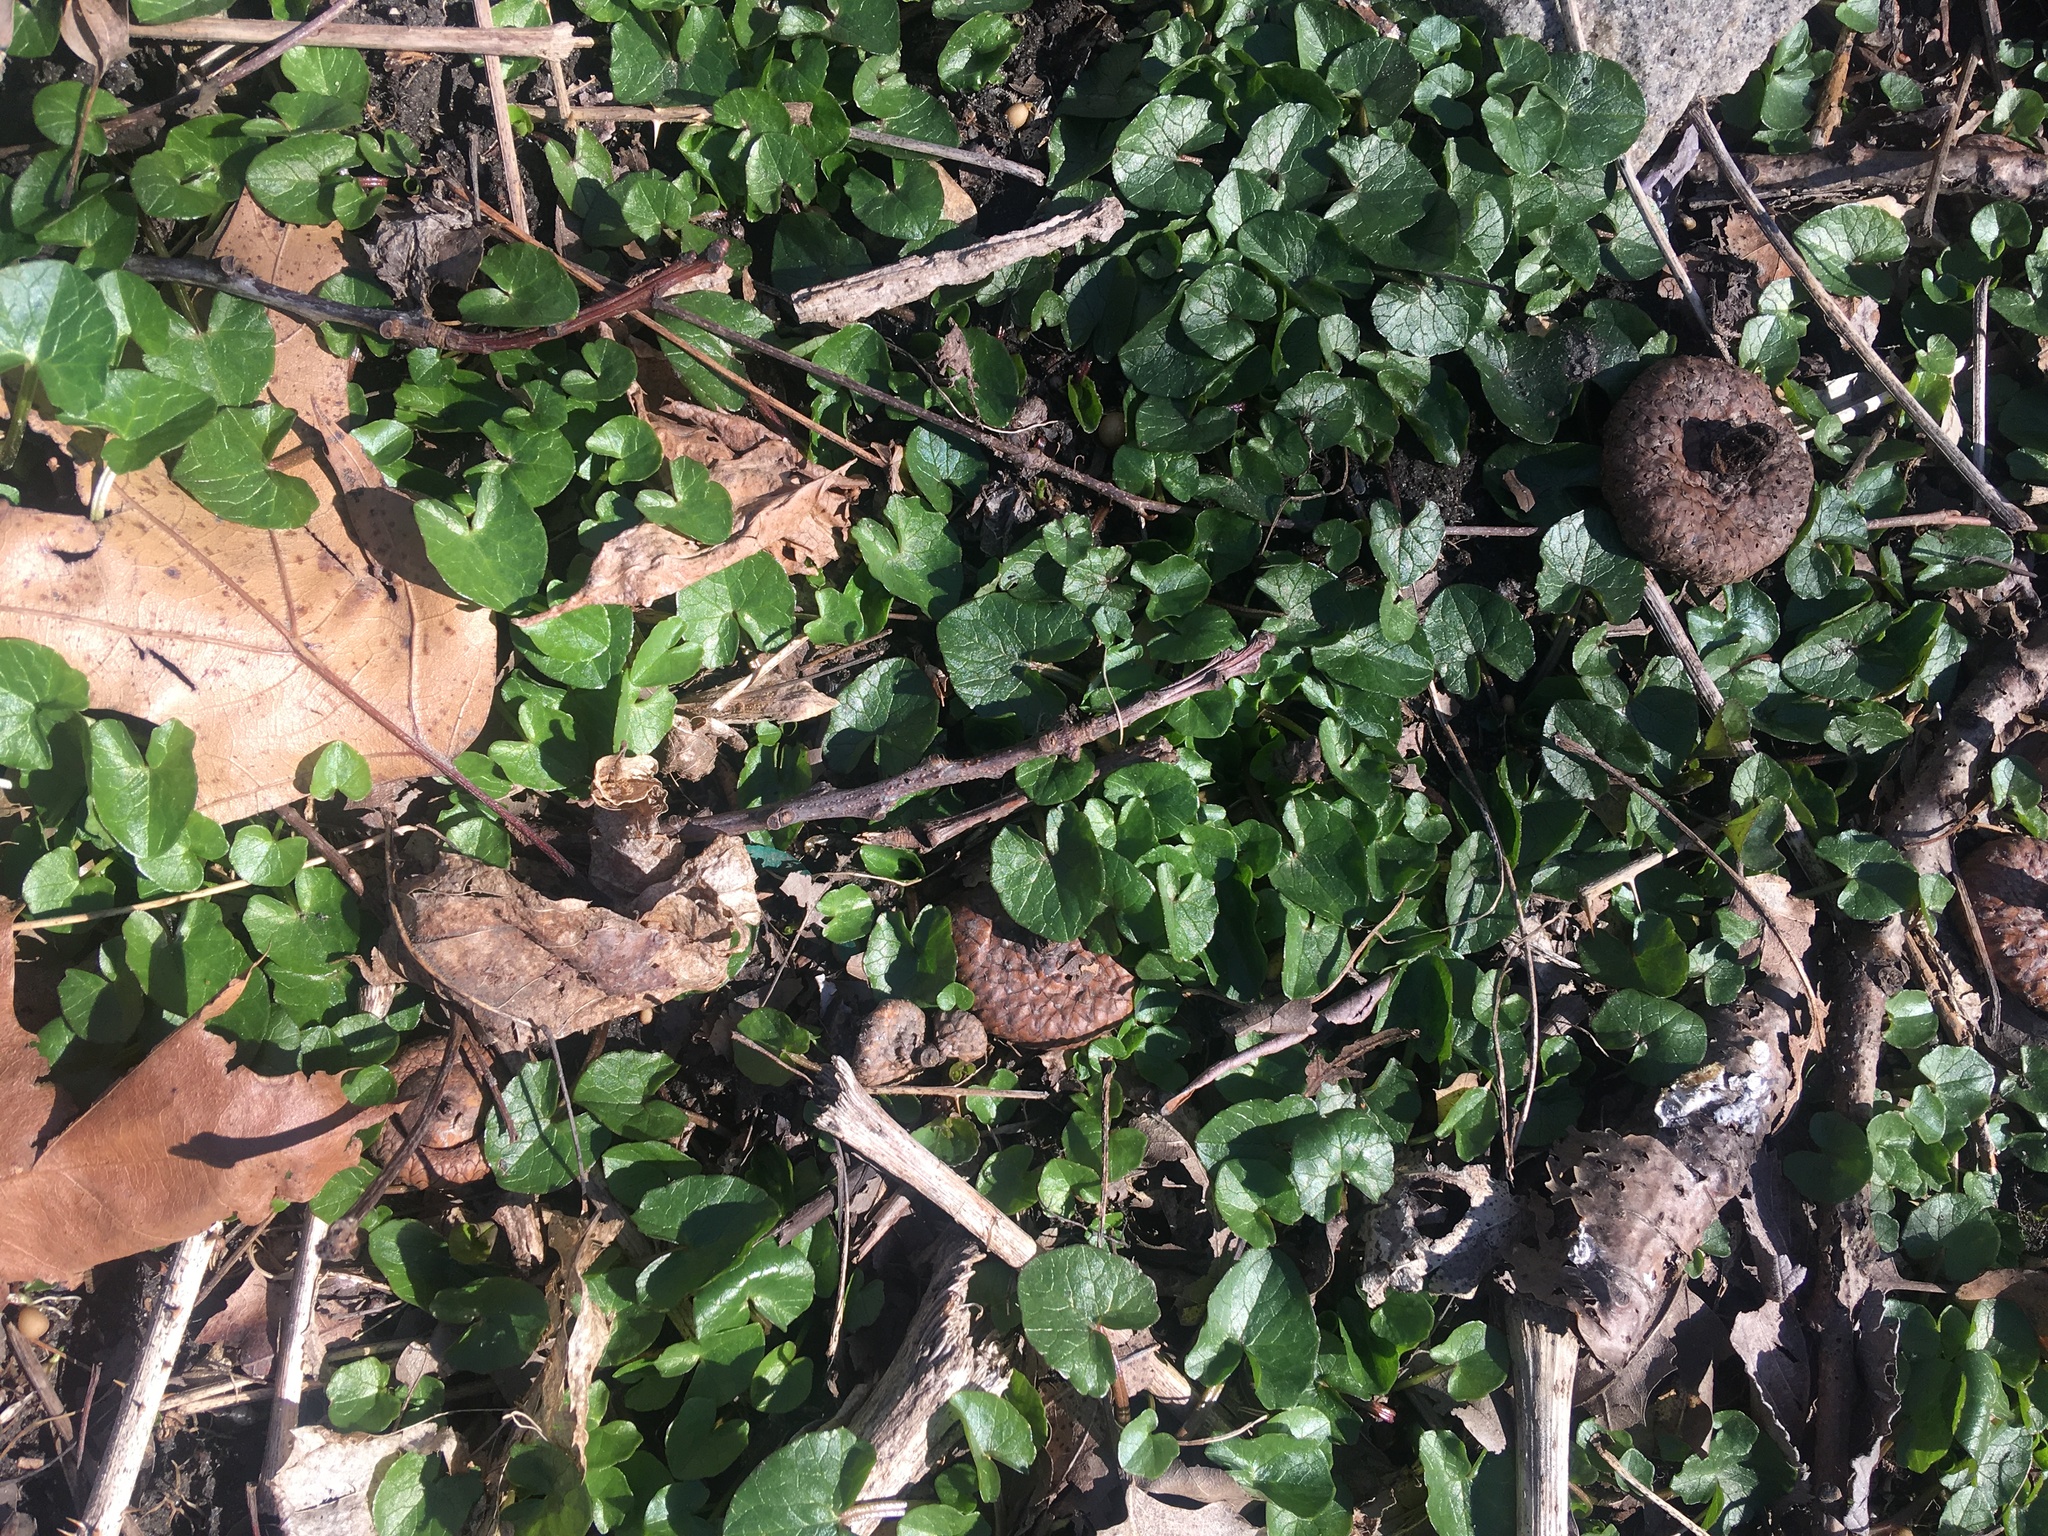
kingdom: Plantae
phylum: Tracheophyta
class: Magnoliopsida
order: Ranunculales
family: Ranunculaceae
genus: Ficaria
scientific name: Ficaria verna
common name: Lesser celandine
